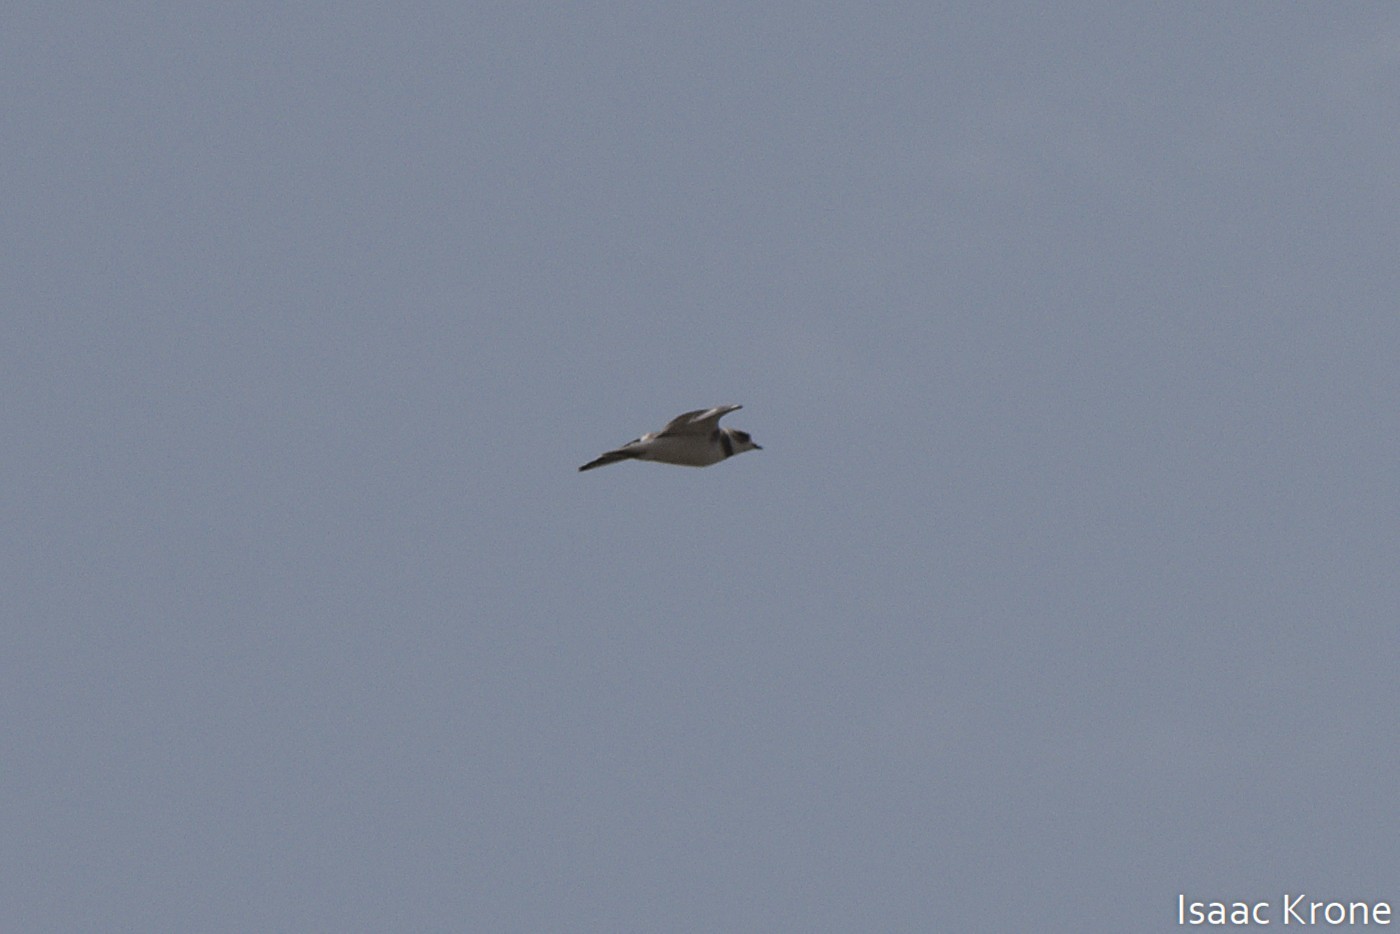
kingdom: Animalia
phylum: Chordata
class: Aves
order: Charadriiformes
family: Charadriidae
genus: Charadrius
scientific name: Charadrius semipalmatus
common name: Semipalmated plover
